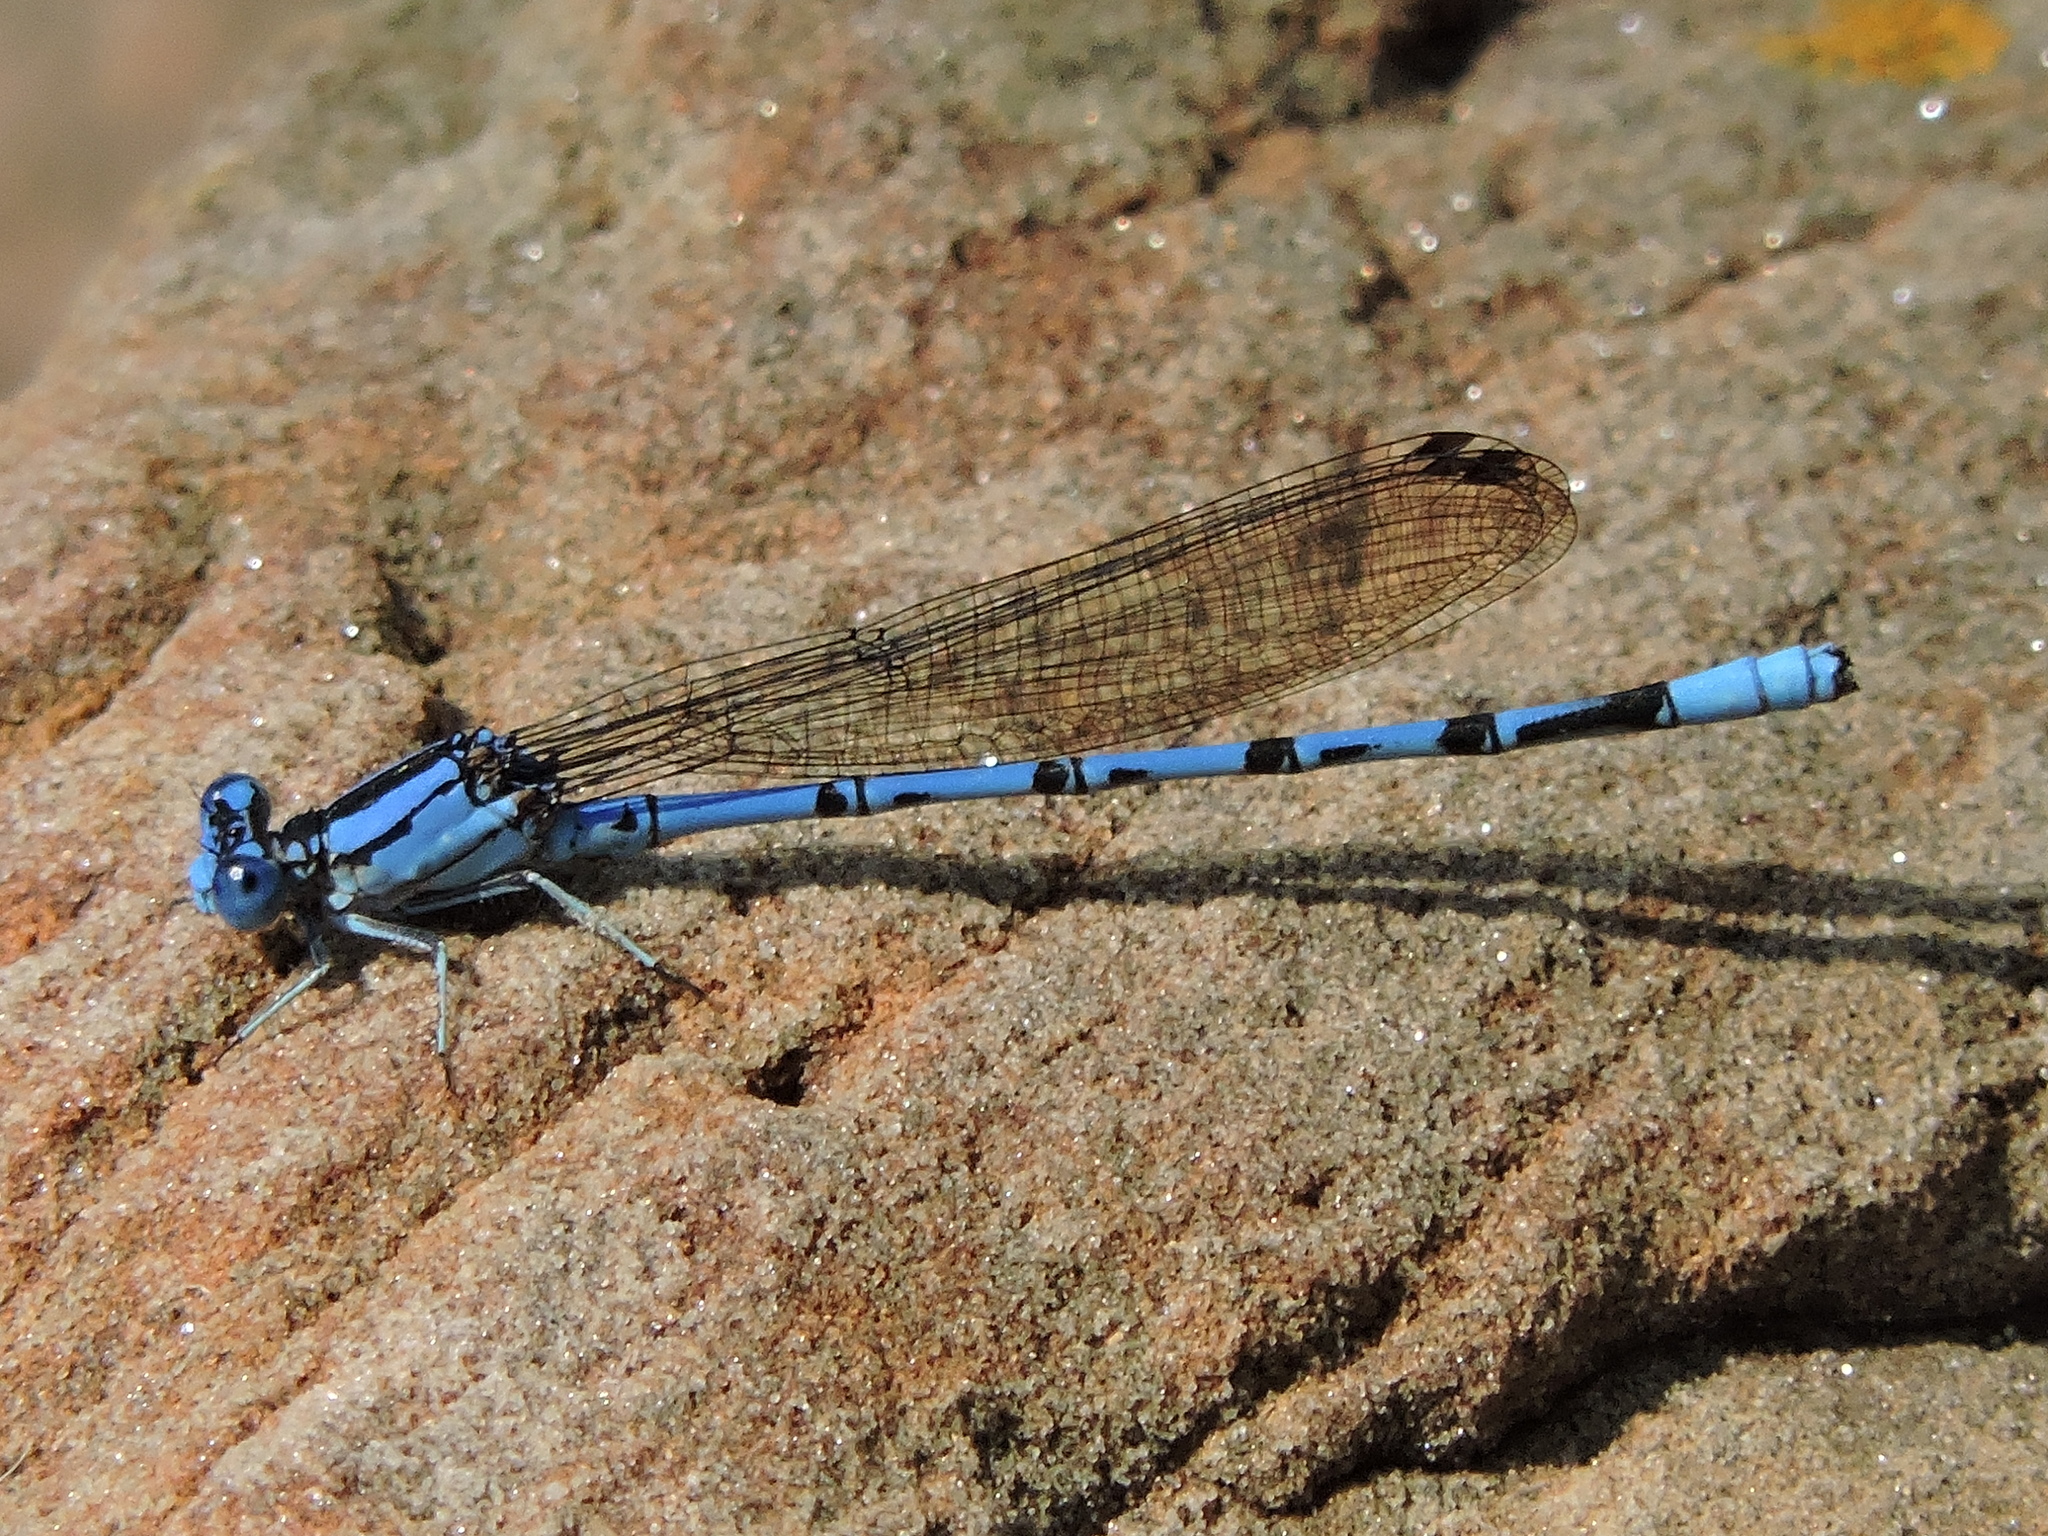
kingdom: Animalia
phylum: Arthropoda
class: Insecta
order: Odonata
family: Coenagrionidae
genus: Argia
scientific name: Argia funebris
